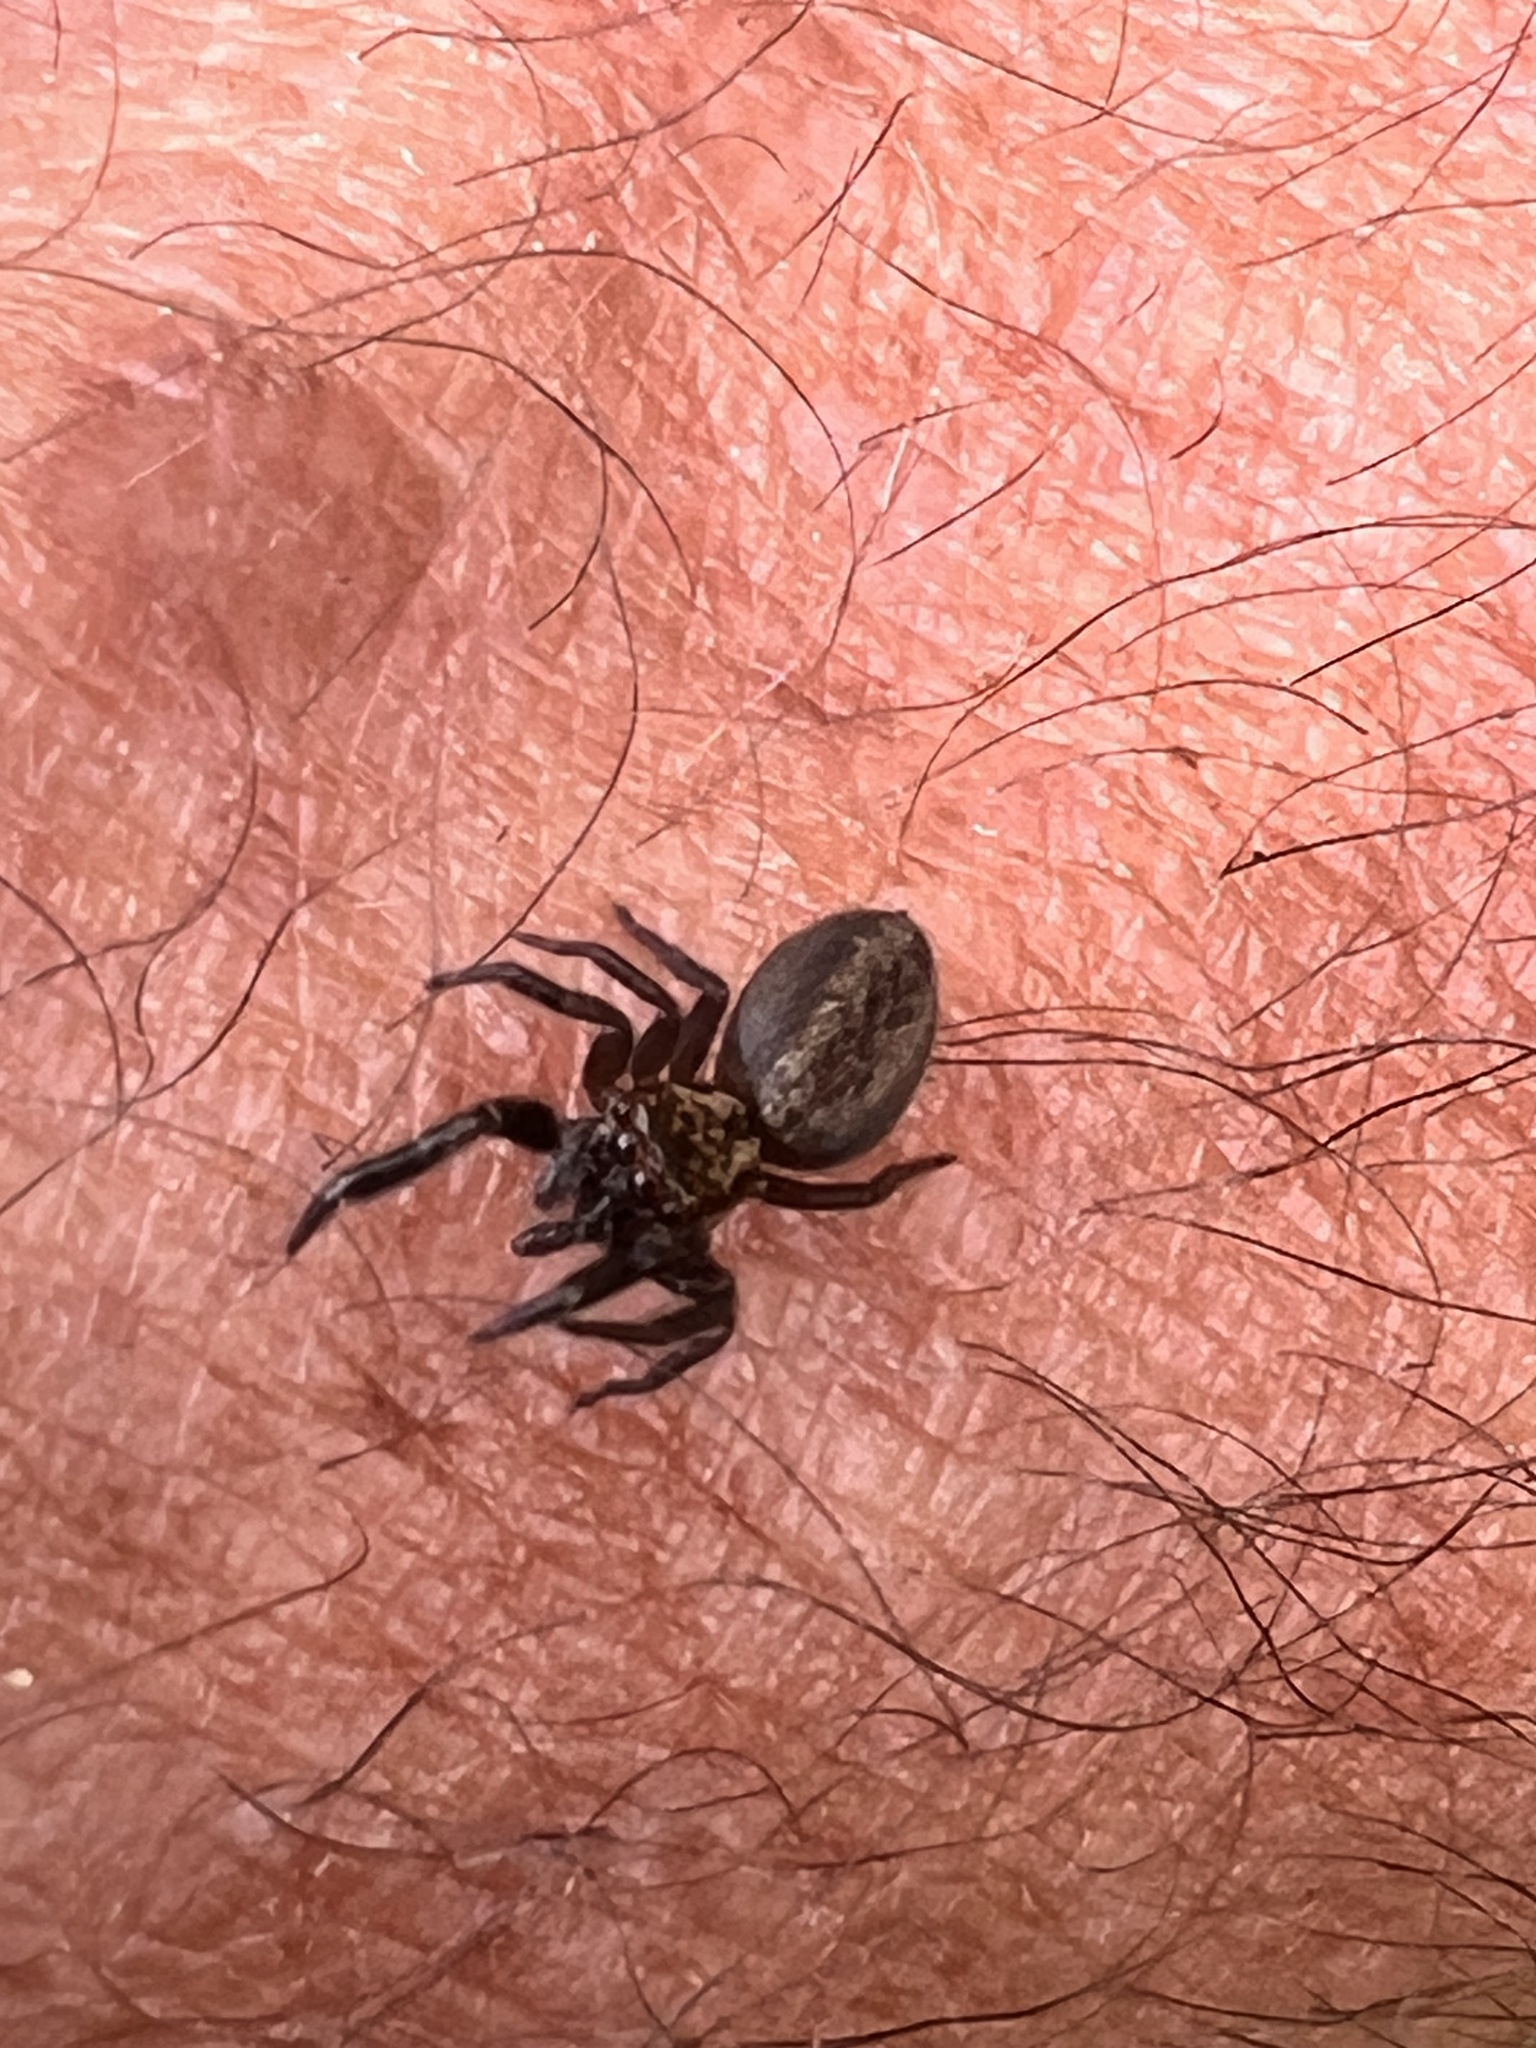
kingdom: Animalia
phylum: Arthropoda
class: Arachnida
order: Araneae
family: Salticidae
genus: Trite
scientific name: Trite auricoma
